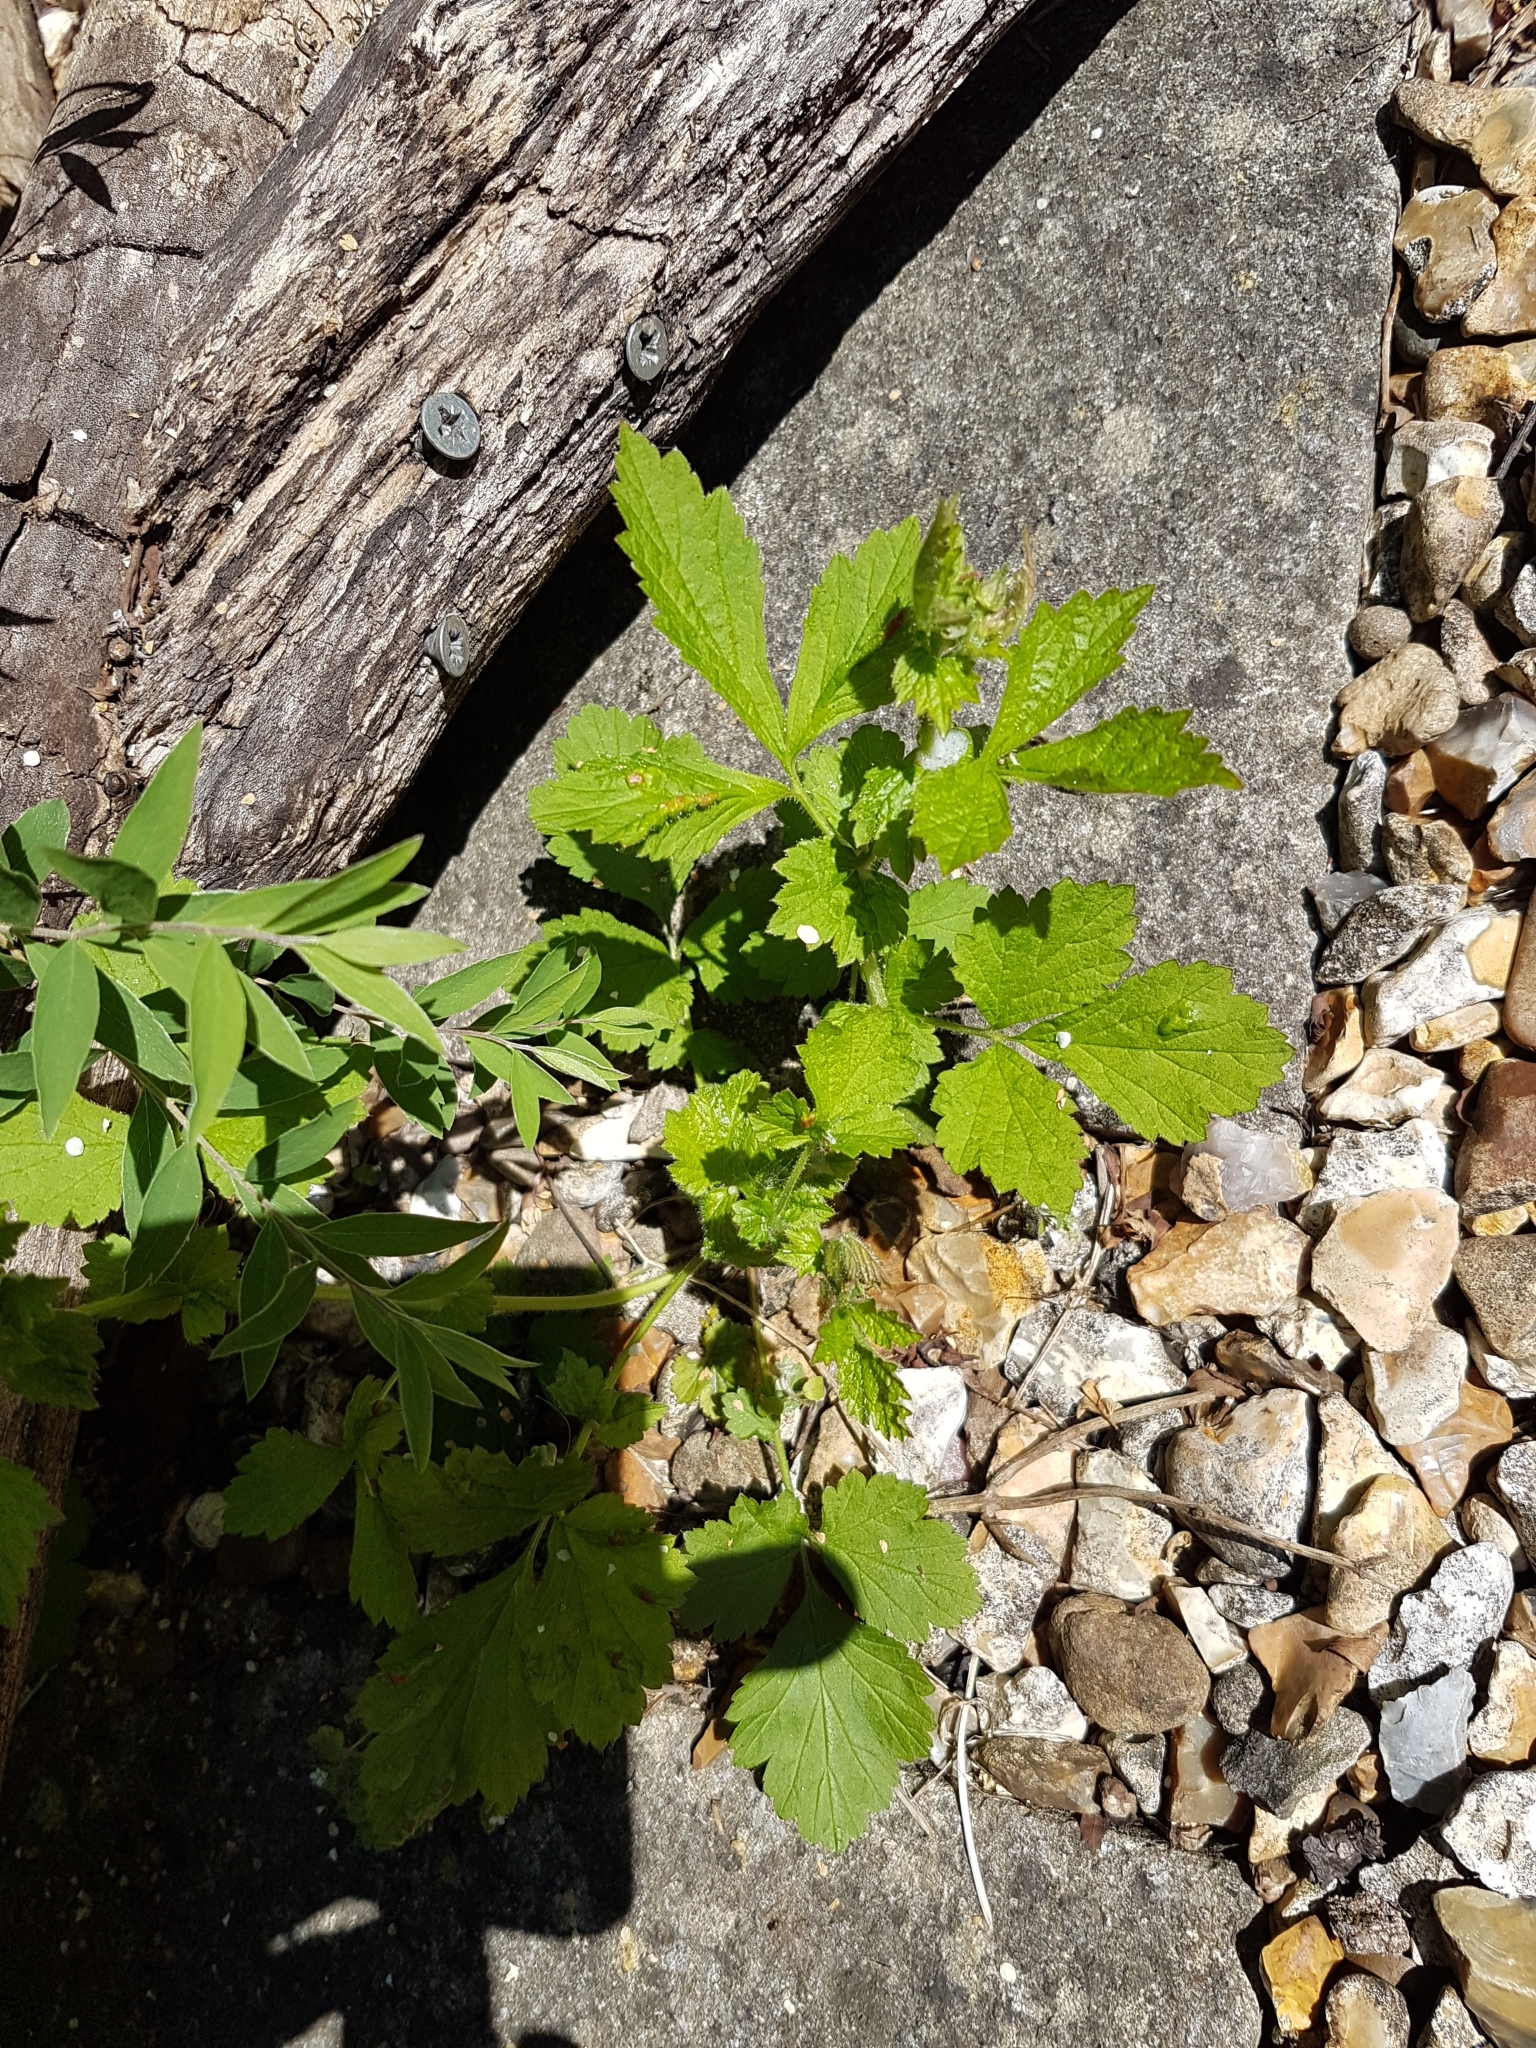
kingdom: Plantae
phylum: Tracheophyta
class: Magnoliopsida
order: Rosales
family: Rosaceae
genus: Geum
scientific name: Geum urbanum
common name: Wood avens
